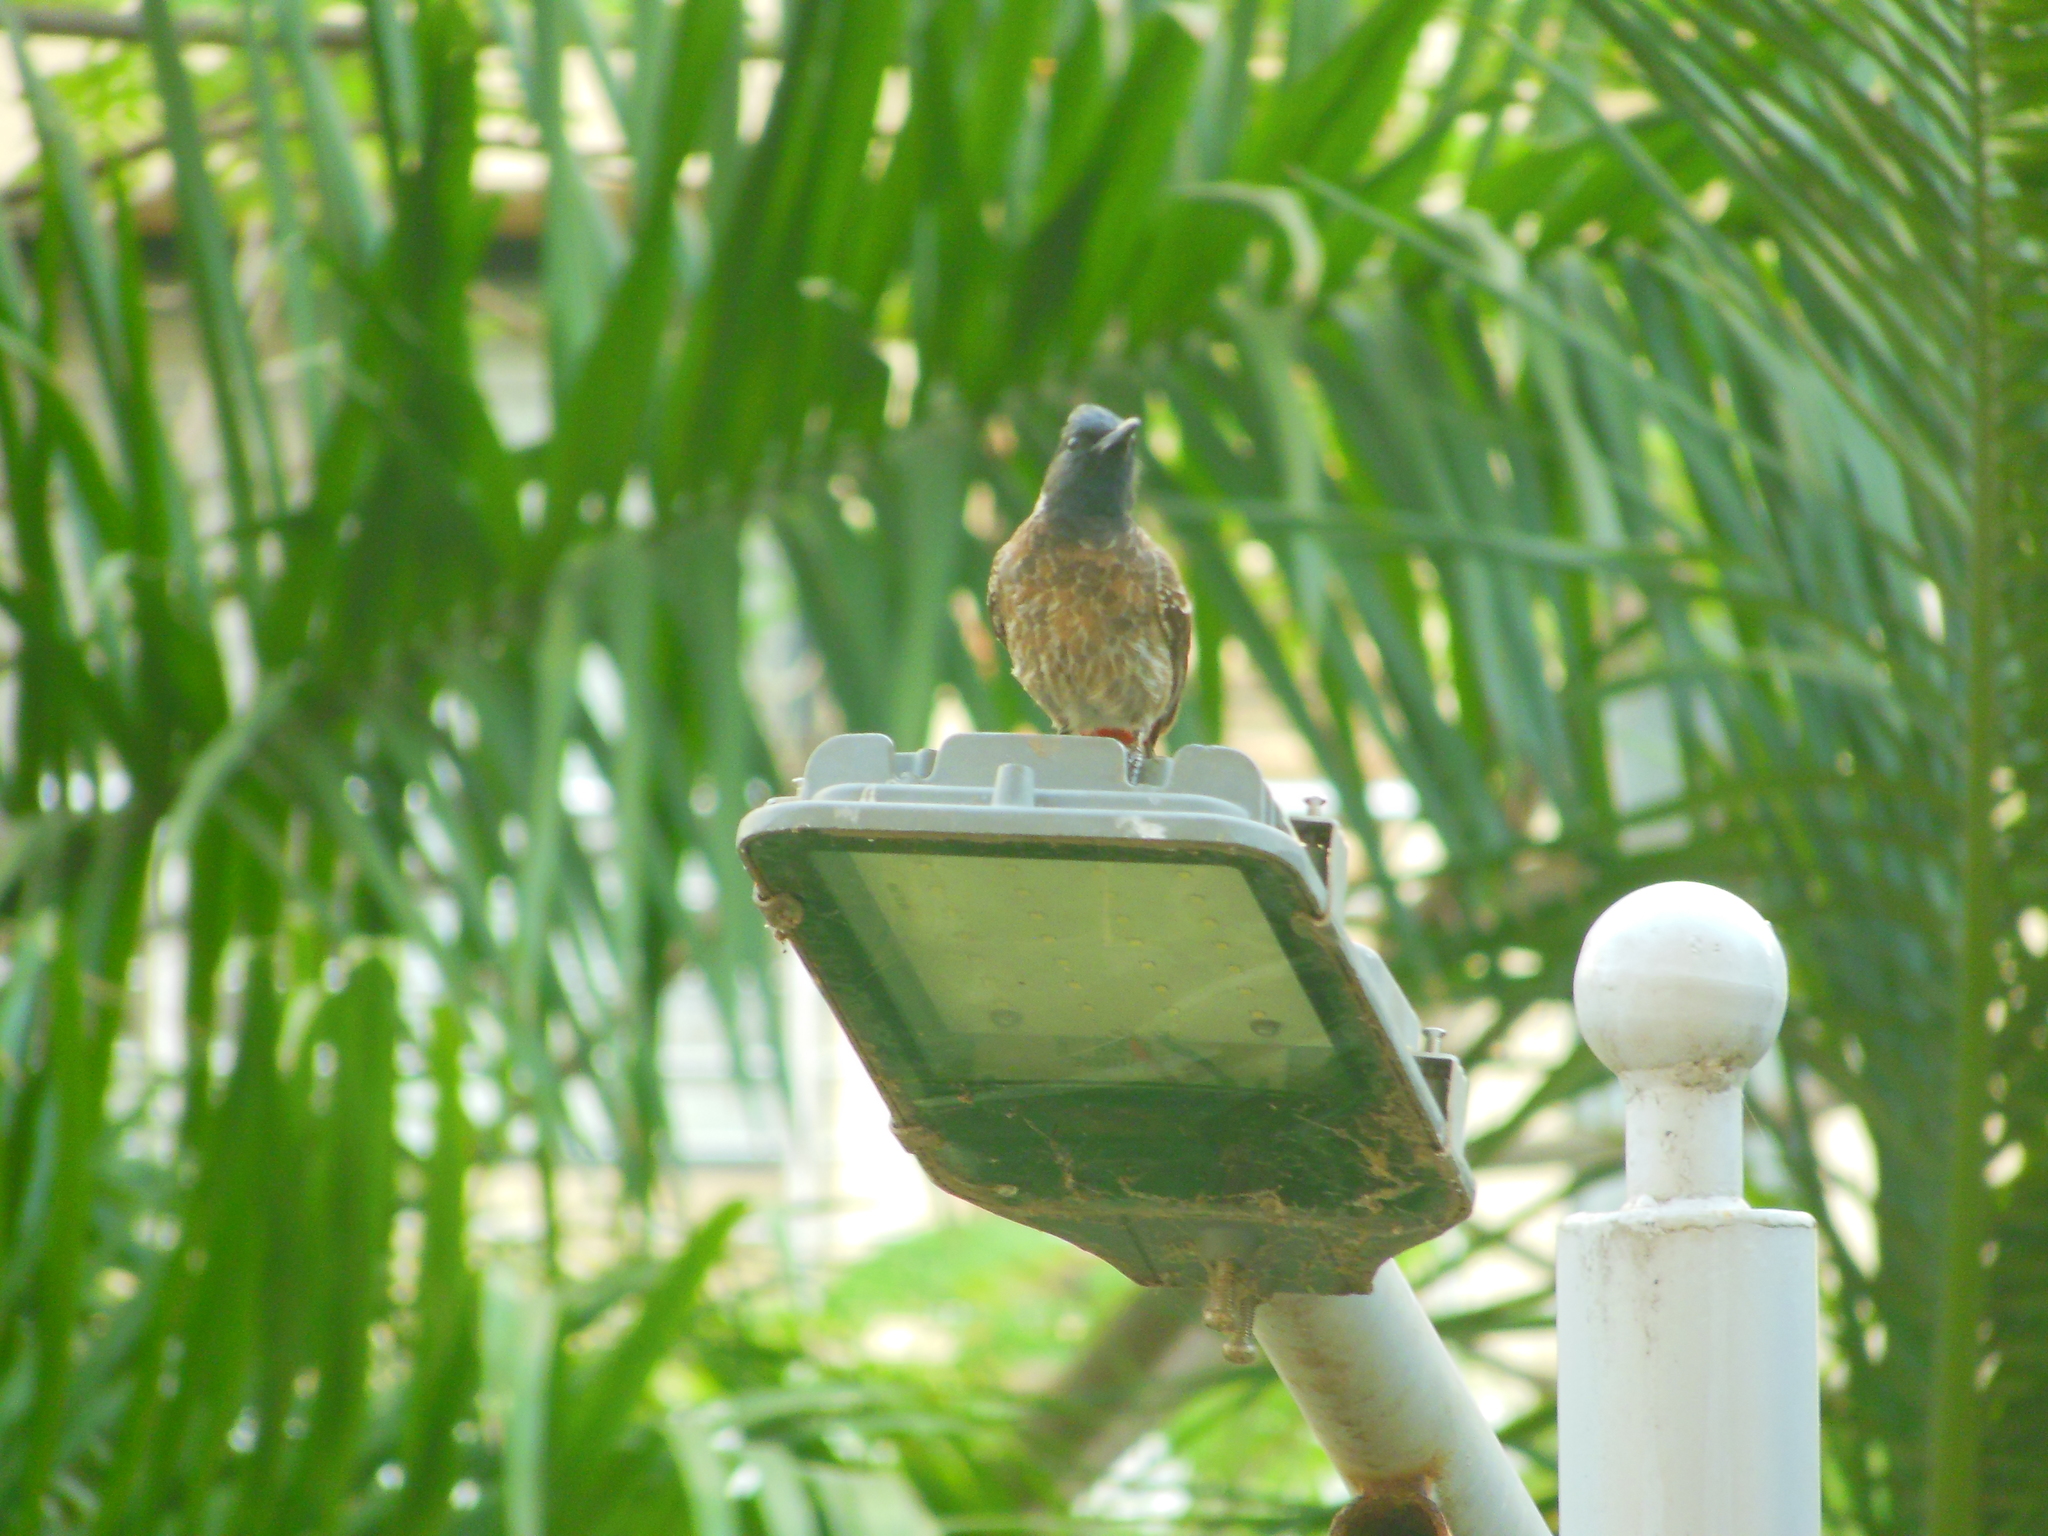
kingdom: Animalia
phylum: Chordata
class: Aves
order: Passeriformes
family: Pycnonotidae
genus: Pycnonotus
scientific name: Pycnonotus cafer
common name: Red-vented bulbul
